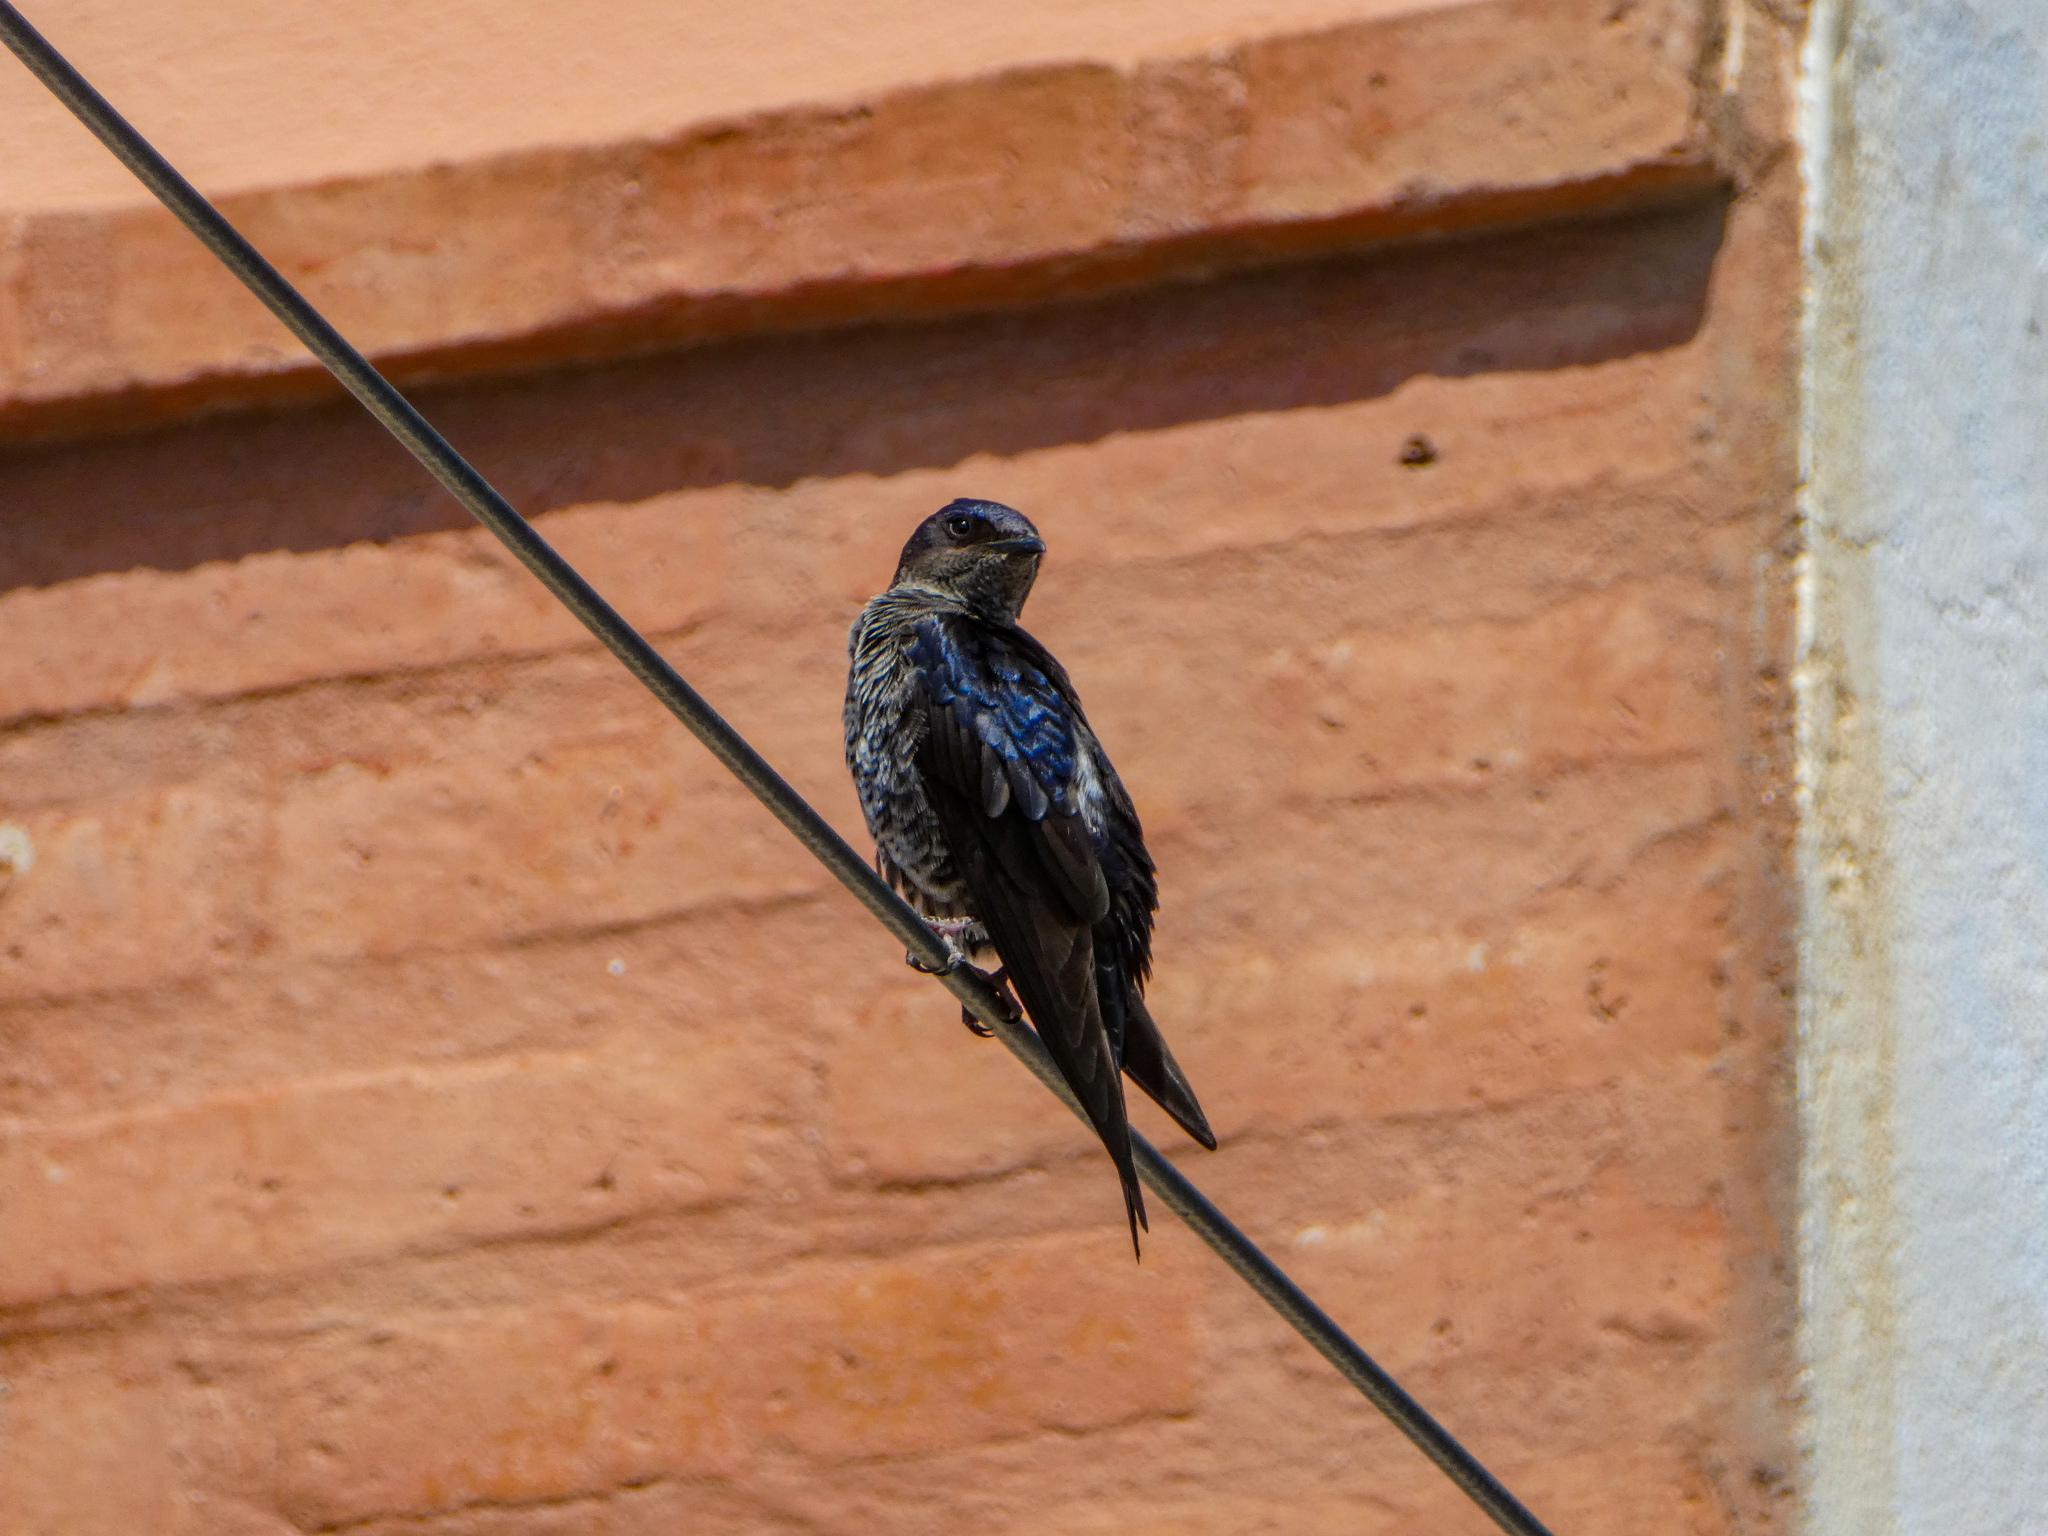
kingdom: Animalia
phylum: Chordata
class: Aves
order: Passeriformes
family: Hirundinidae
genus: Progne
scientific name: Progne elegans
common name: Southern martin
